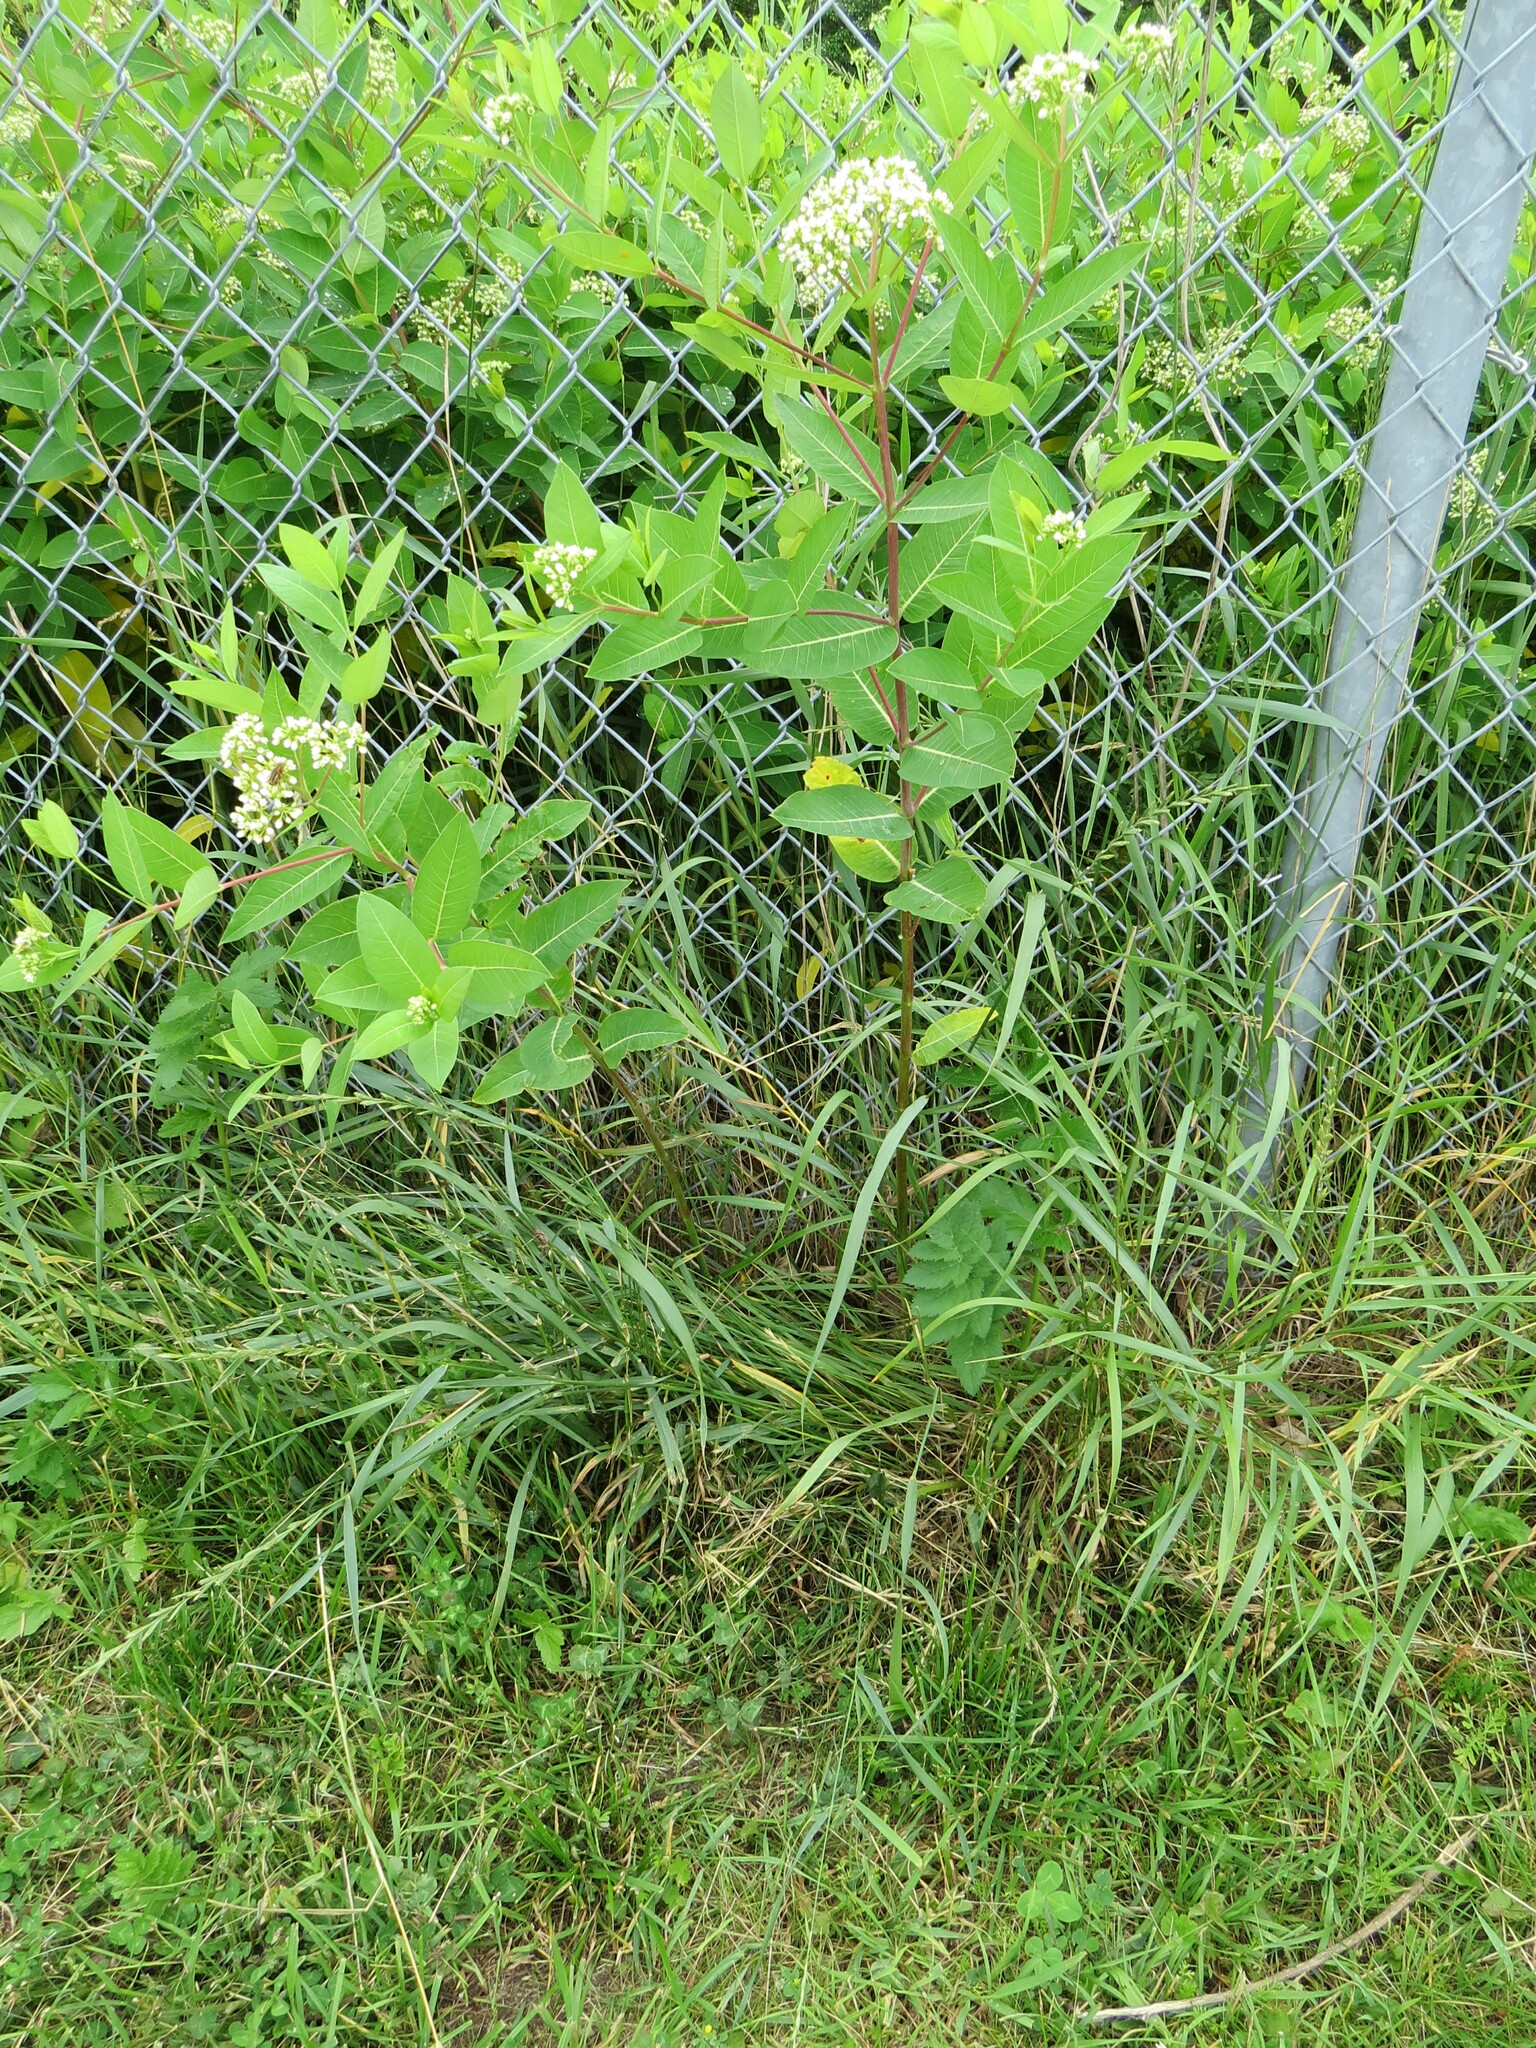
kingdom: Plantae
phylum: Tracheophyta
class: Magnoliopsida
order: Gentianales
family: Apocynaceae
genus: Apocynum
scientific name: Apocynum cannabinum
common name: Hemp dogbane
